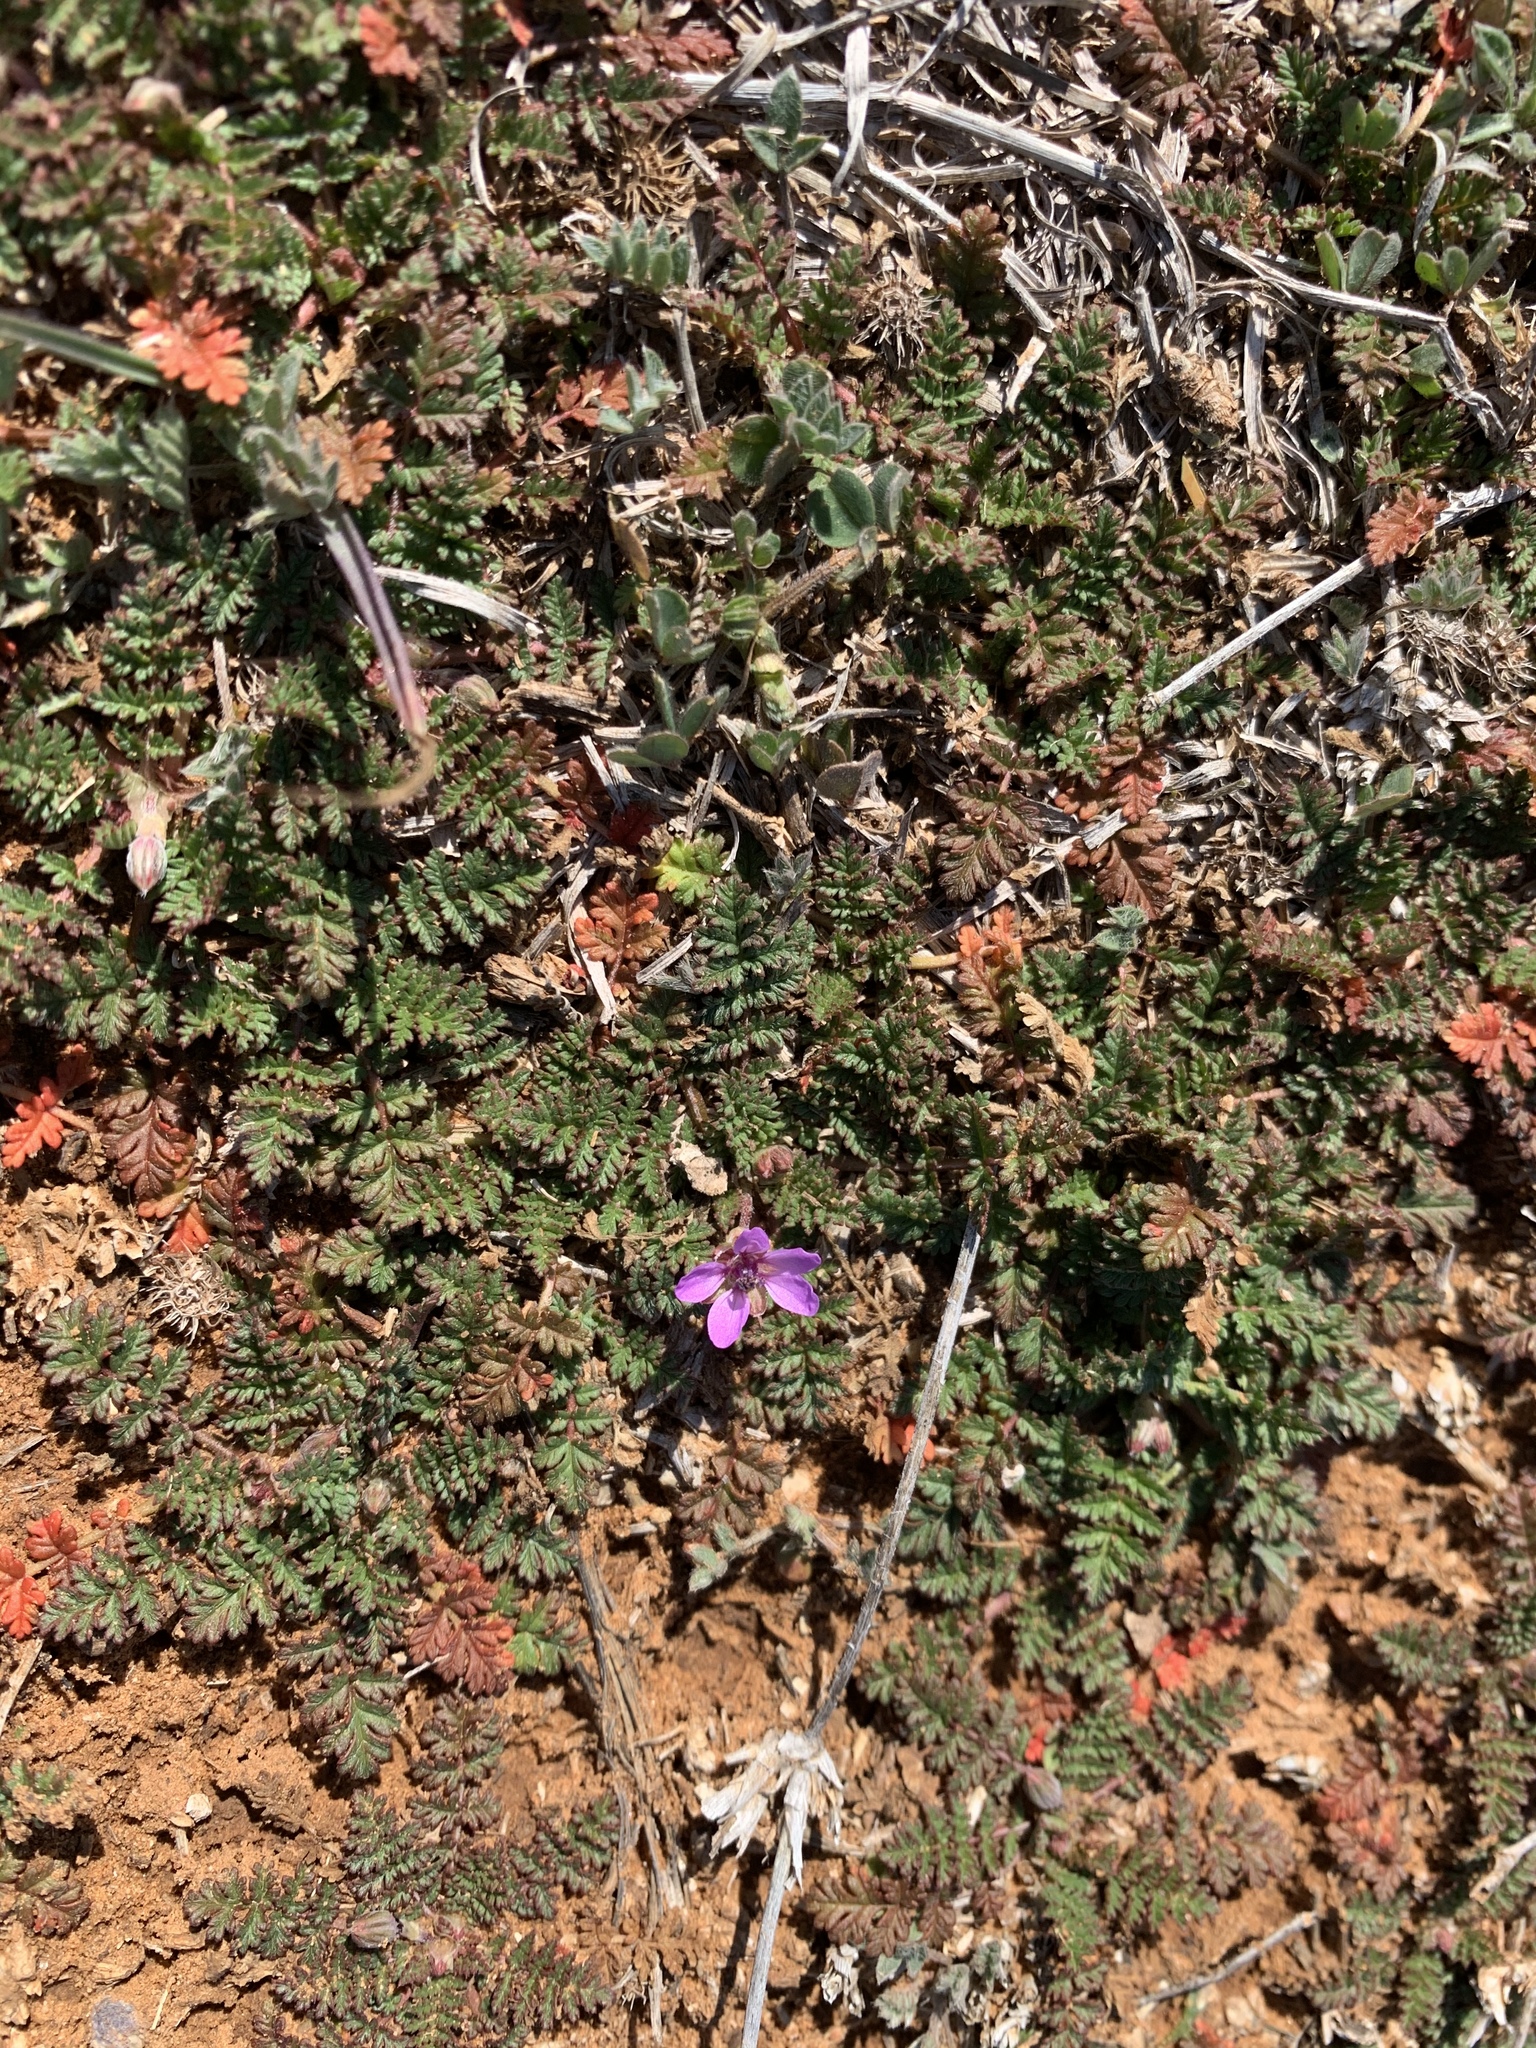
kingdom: Plantae
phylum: Tracheophyta
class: Magnoliopsida
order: Geraniales
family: Geraniaceae
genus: Erodium
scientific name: Erodium cicutarium
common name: Common stork's-bill
